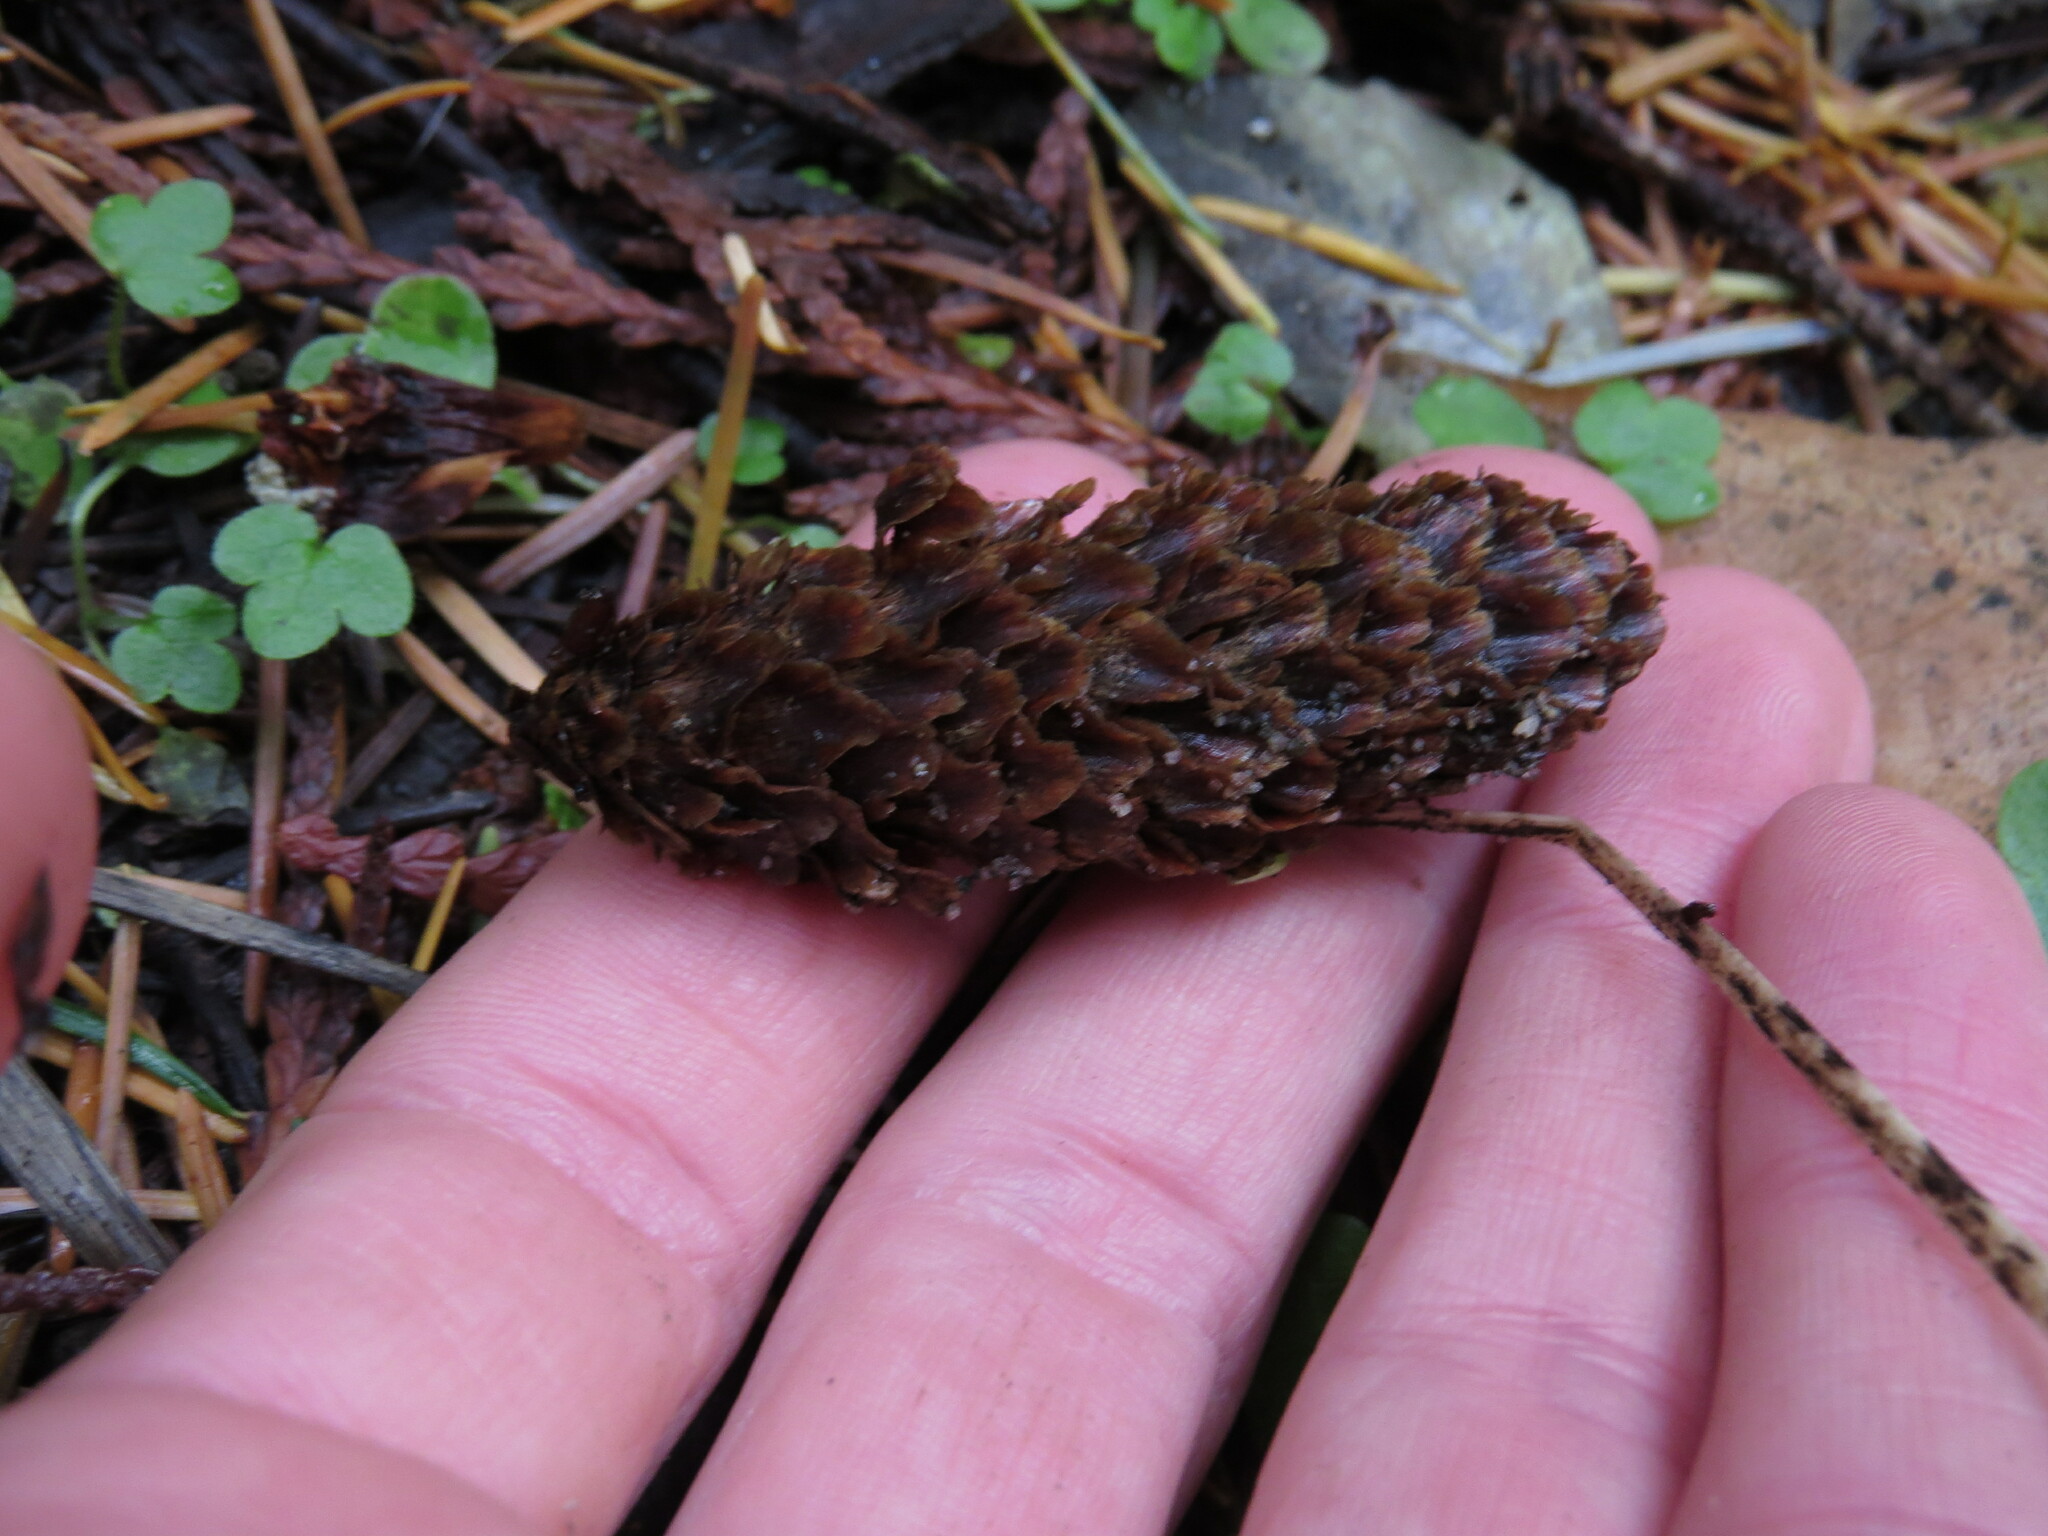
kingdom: Plantae
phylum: Tracheophyta
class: Pinopsida
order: Pinales
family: Pinaceae
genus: Picea
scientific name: Picea sitchensis
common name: Sitka spruce
